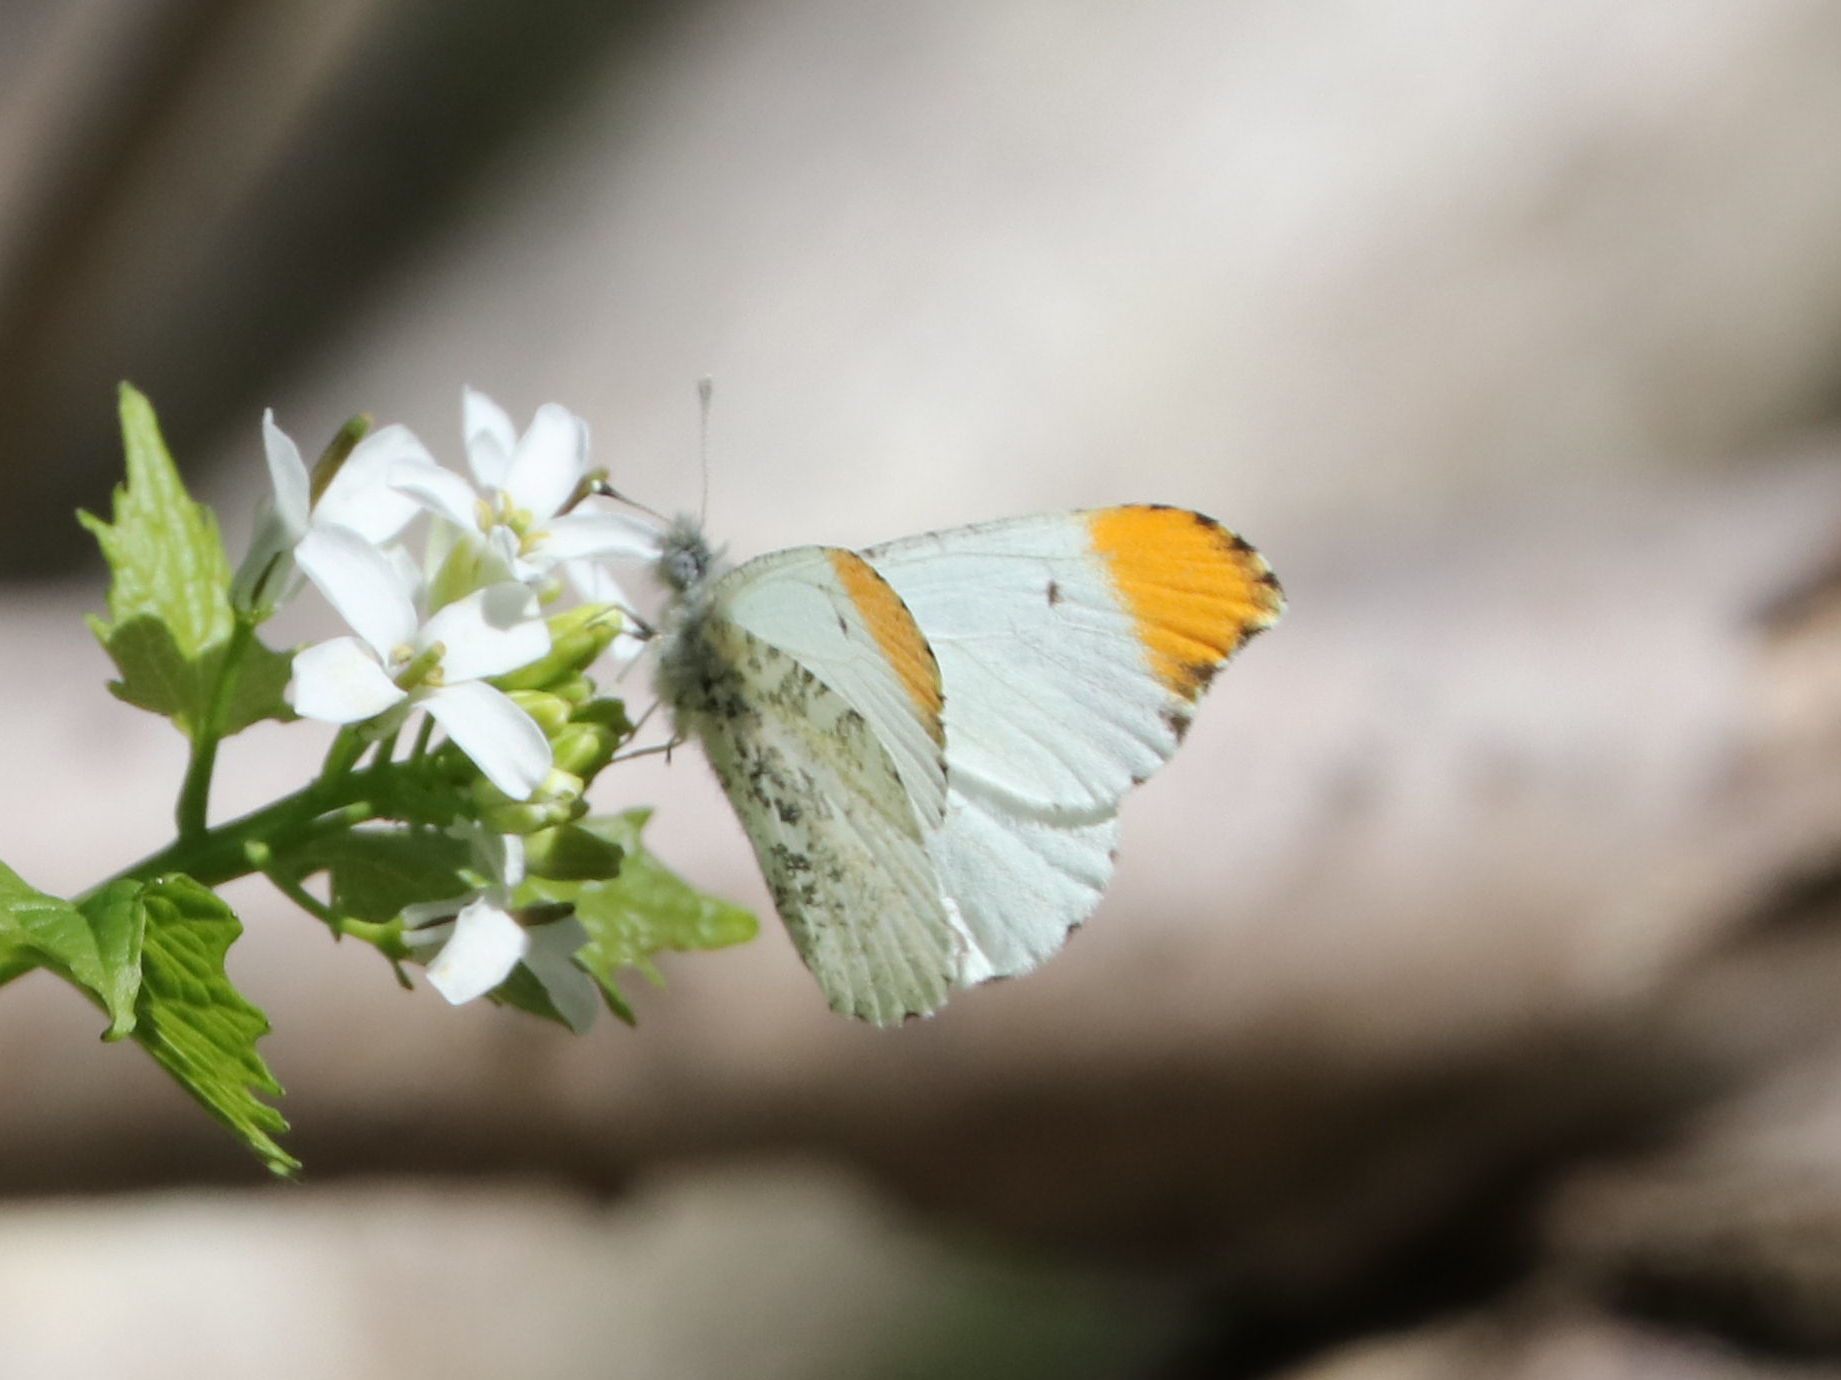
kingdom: Animalia
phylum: Arthropoda
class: Insecta
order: Lepidoptera
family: Pieridae
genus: Anthocharis
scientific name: Anthocharis midea
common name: Falcate orangetip
